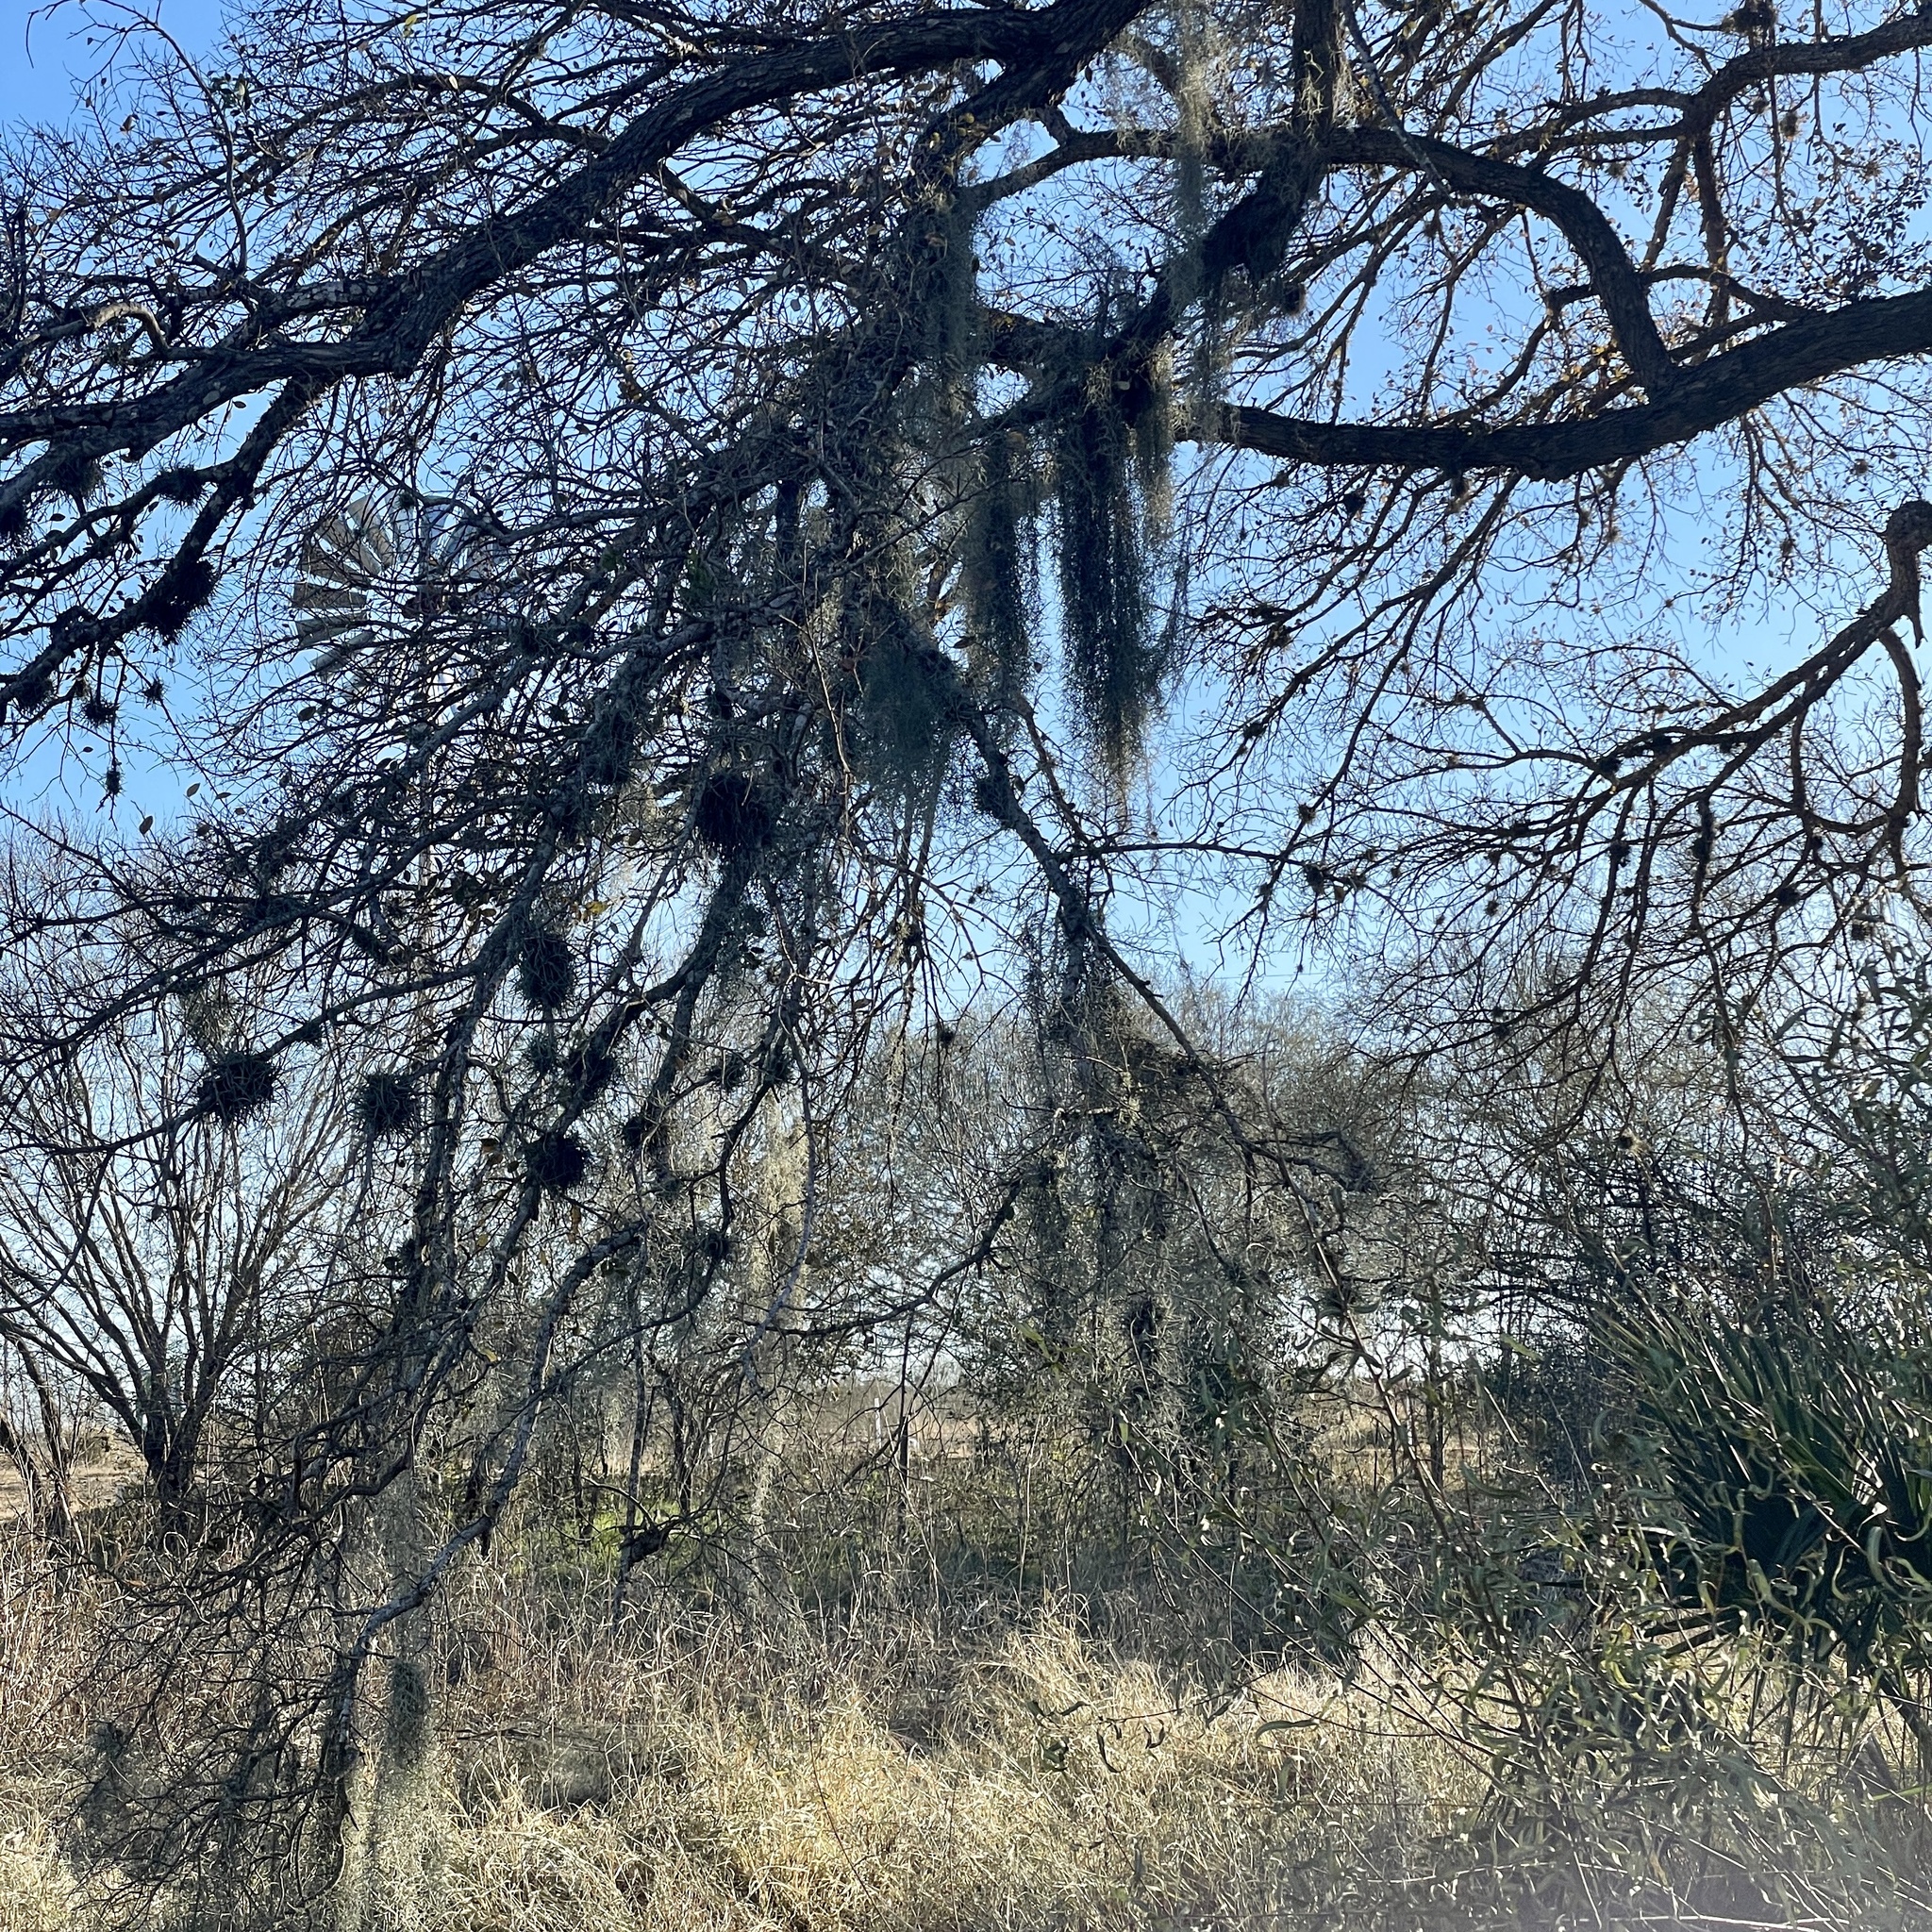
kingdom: Plantae
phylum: Tracheophyta
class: Liliopsida
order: Poales
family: Bromeliaceae
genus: Tillandsia
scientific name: Tillandsia usneoides
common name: Spanish moss
